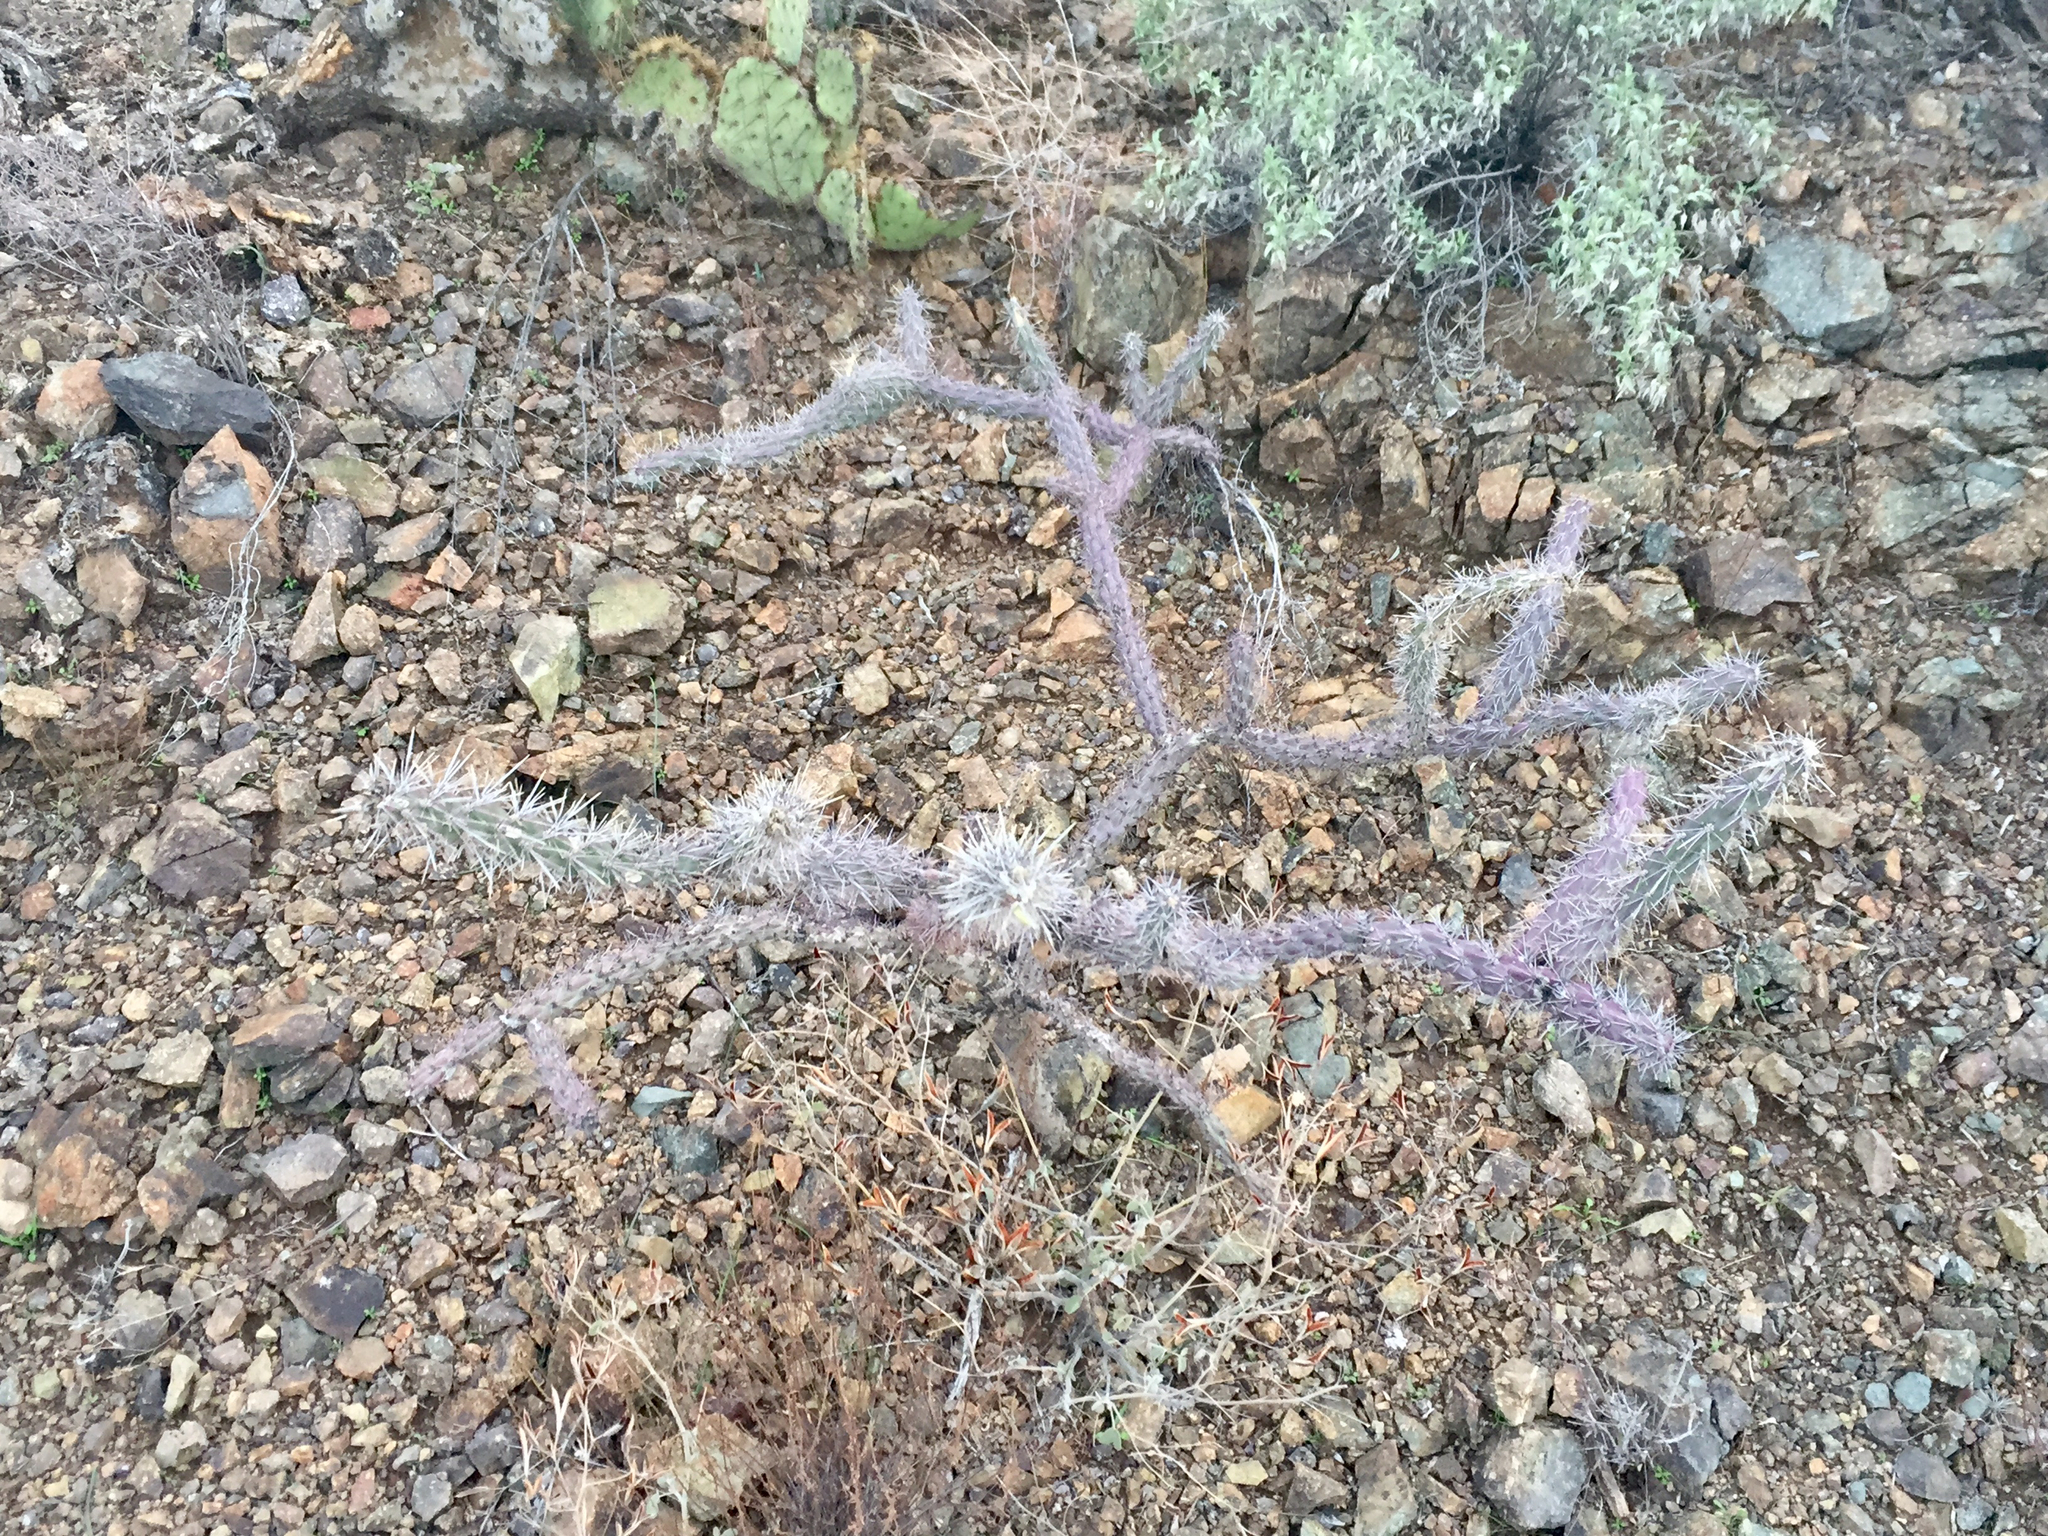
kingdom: Plantae
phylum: Tracheophyta
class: Magnoliopsida
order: Caryophyllales
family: Cactaceae
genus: Cylindropuntia
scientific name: Cylindropuntia thurberi
